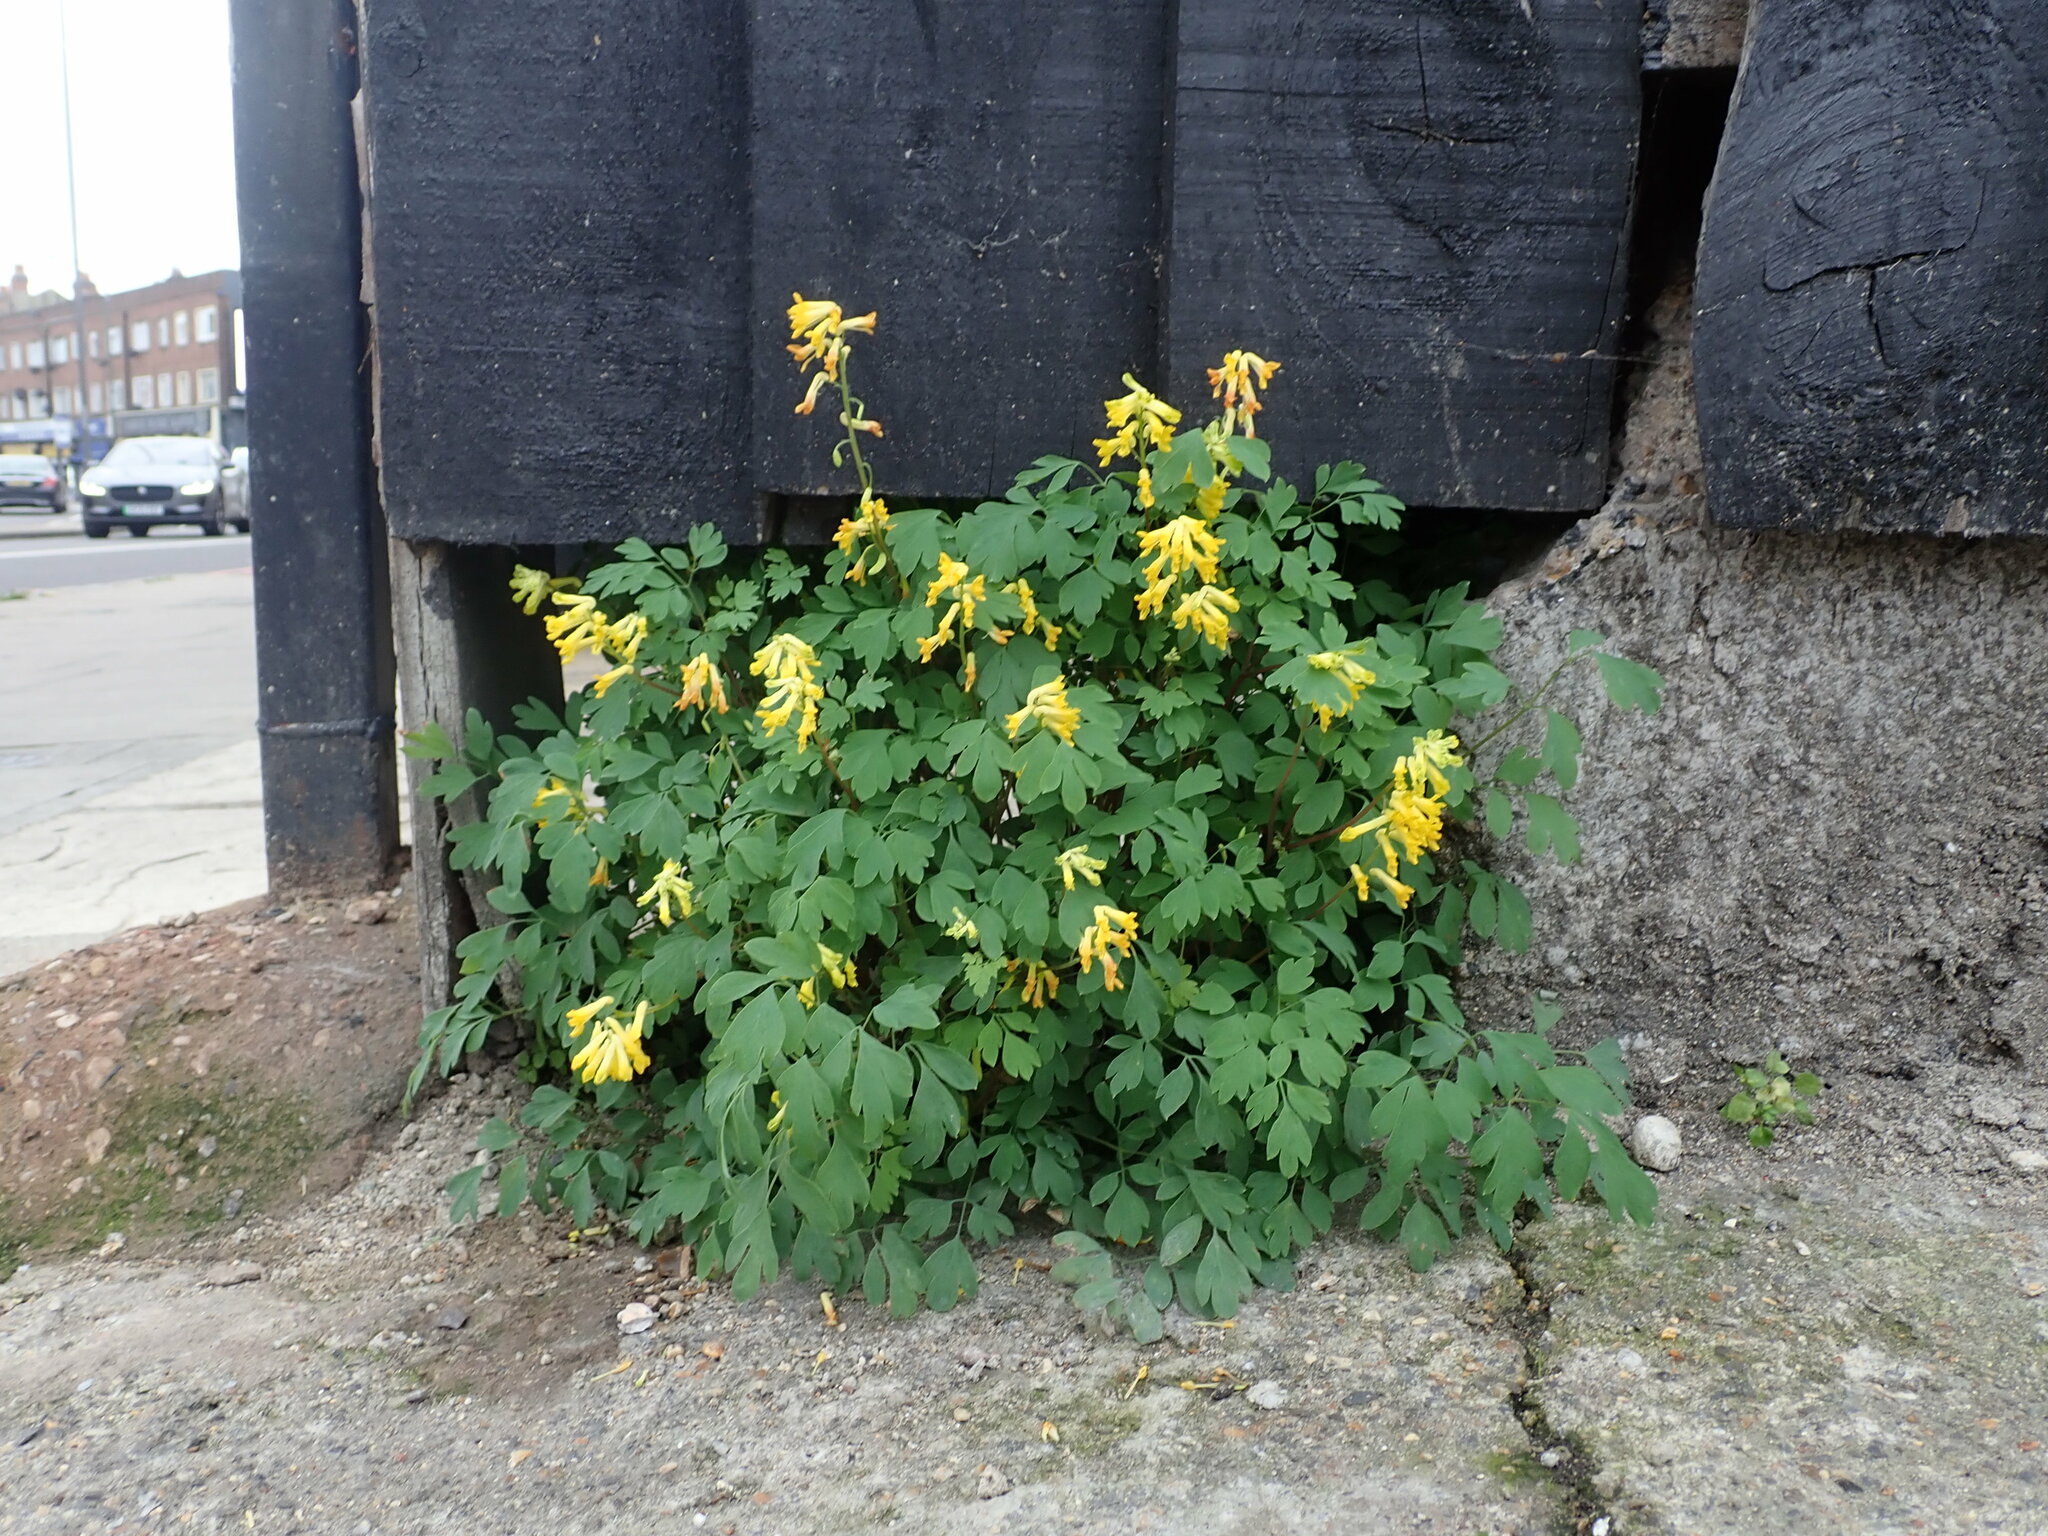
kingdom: Plantae
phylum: Tracheophyta
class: Magnoliopsida
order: Ranunculales
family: Papaveraceae
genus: Pseudofumaria
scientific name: Pseudofumaria lutea
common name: Yellow corydalis
